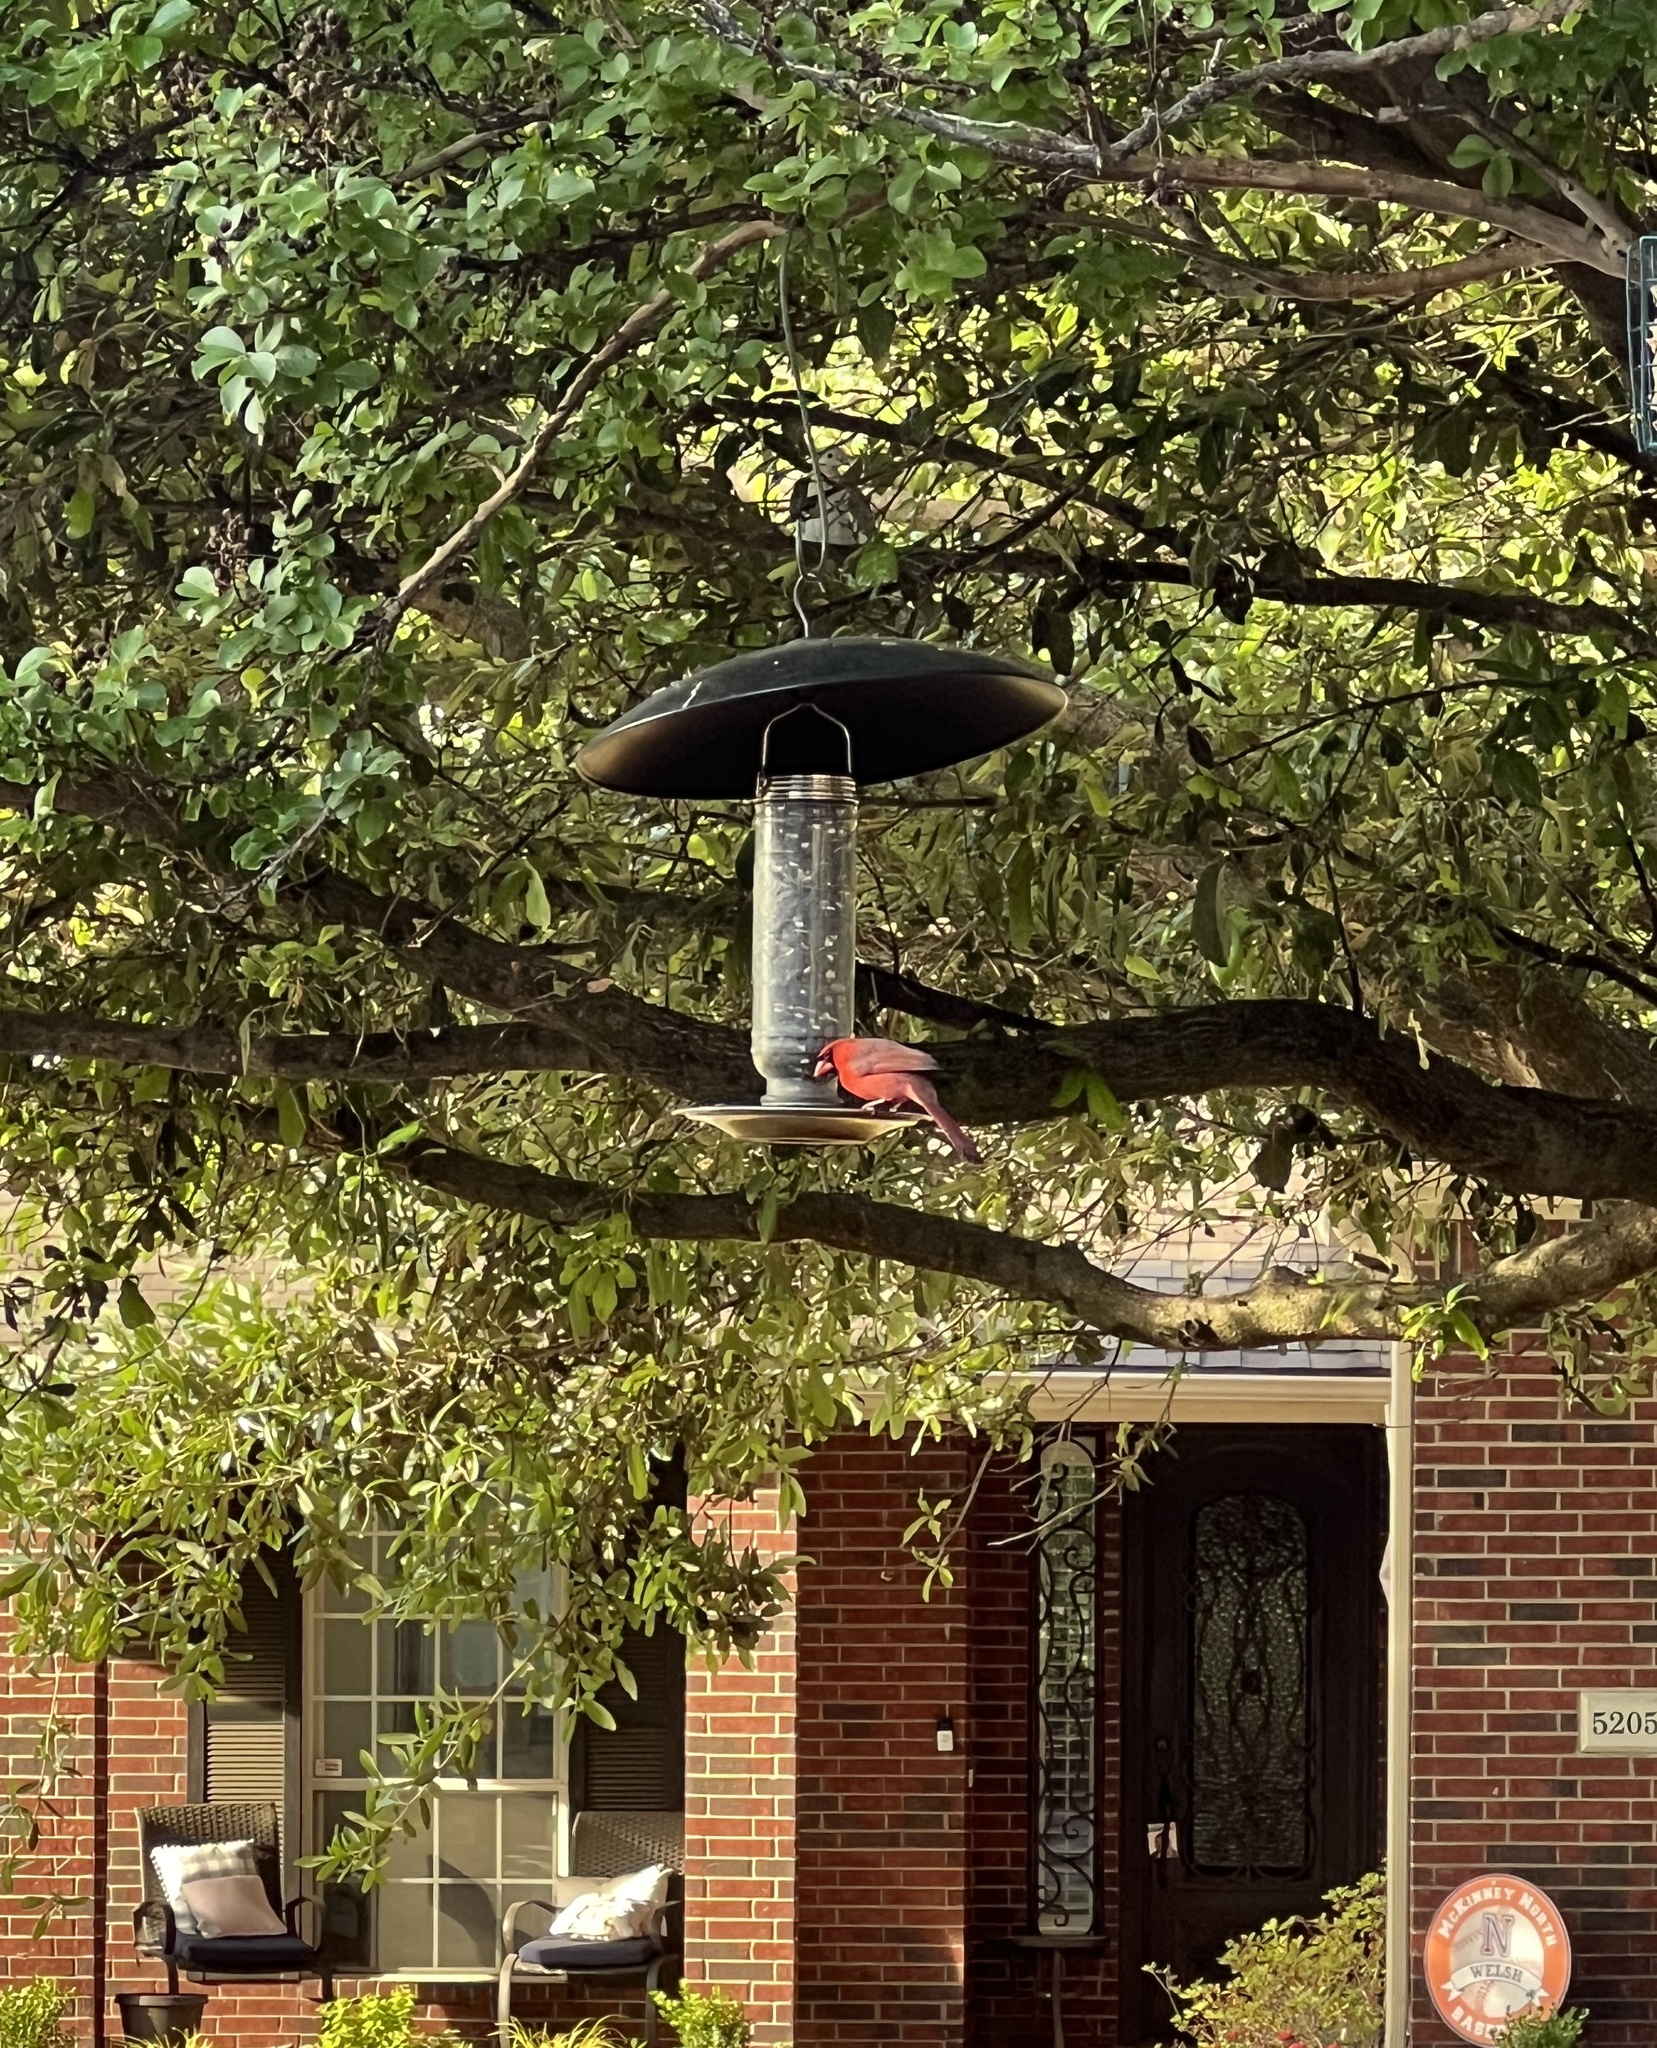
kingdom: Animalia
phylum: Chordata
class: Aves
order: Passeriformes
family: Cardinalidae
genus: Cardinalis
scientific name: Cardinalis cardinalis
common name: Northern cardinal
